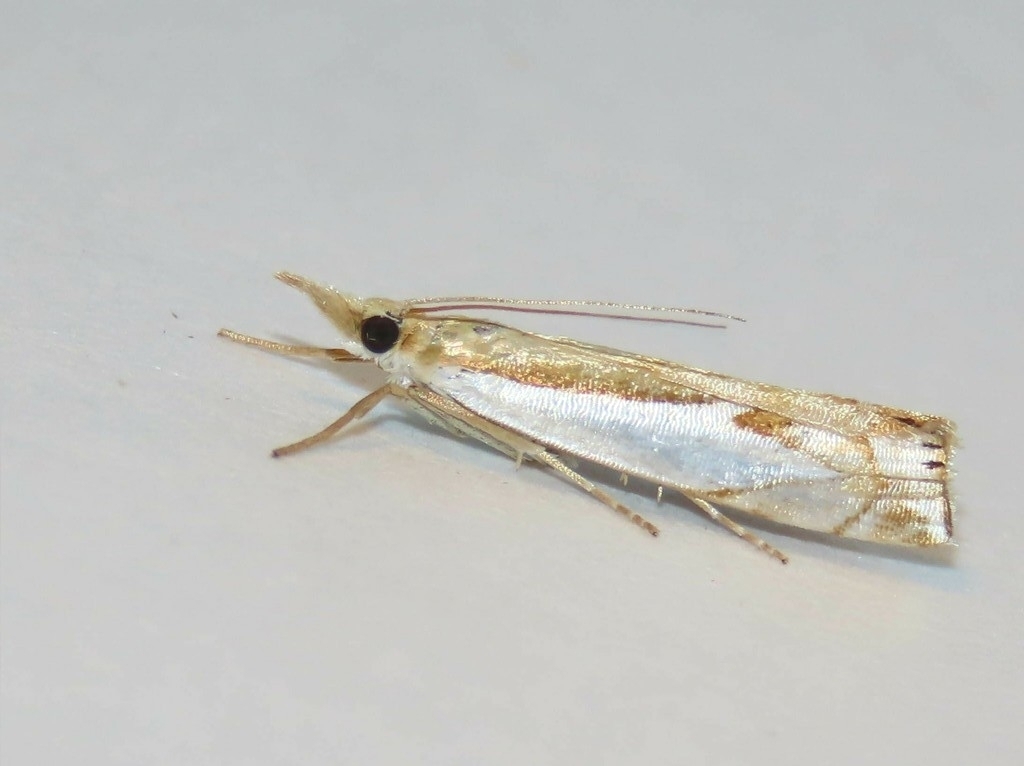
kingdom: Animalia
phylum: Arthropoda
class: Insecta
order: Lepidoptera
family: Crambidae
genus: Crambus
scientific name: Crambus bidens
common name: Forked grass-veneer
